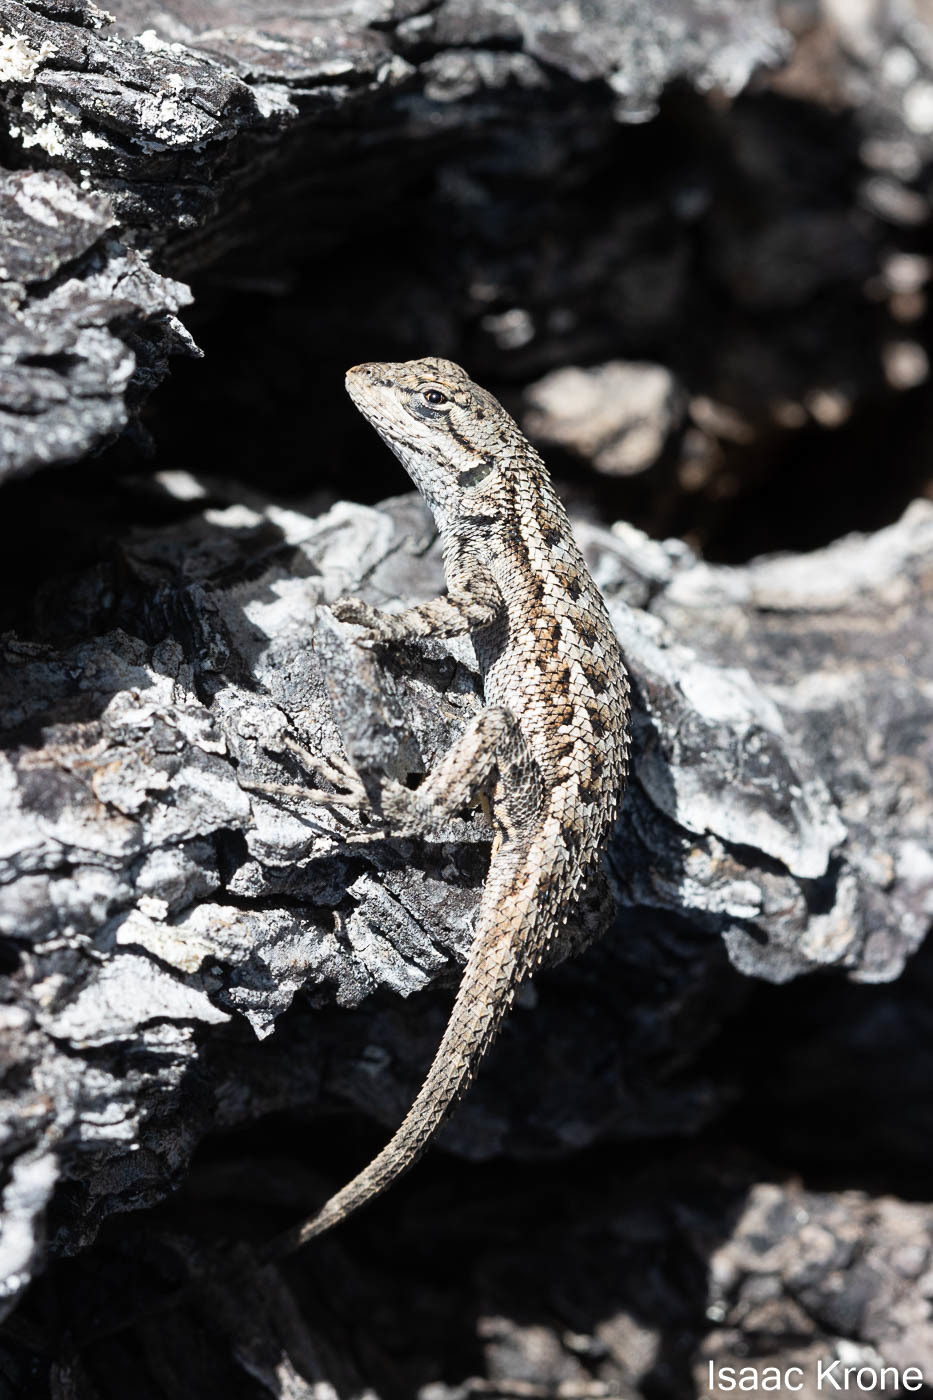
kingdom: Animalia
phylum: Chordata
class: Squamata
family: Phrynosomatidae
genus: Sceloporus
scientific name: Sceloporus occidentalis
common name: Western fence lizard
